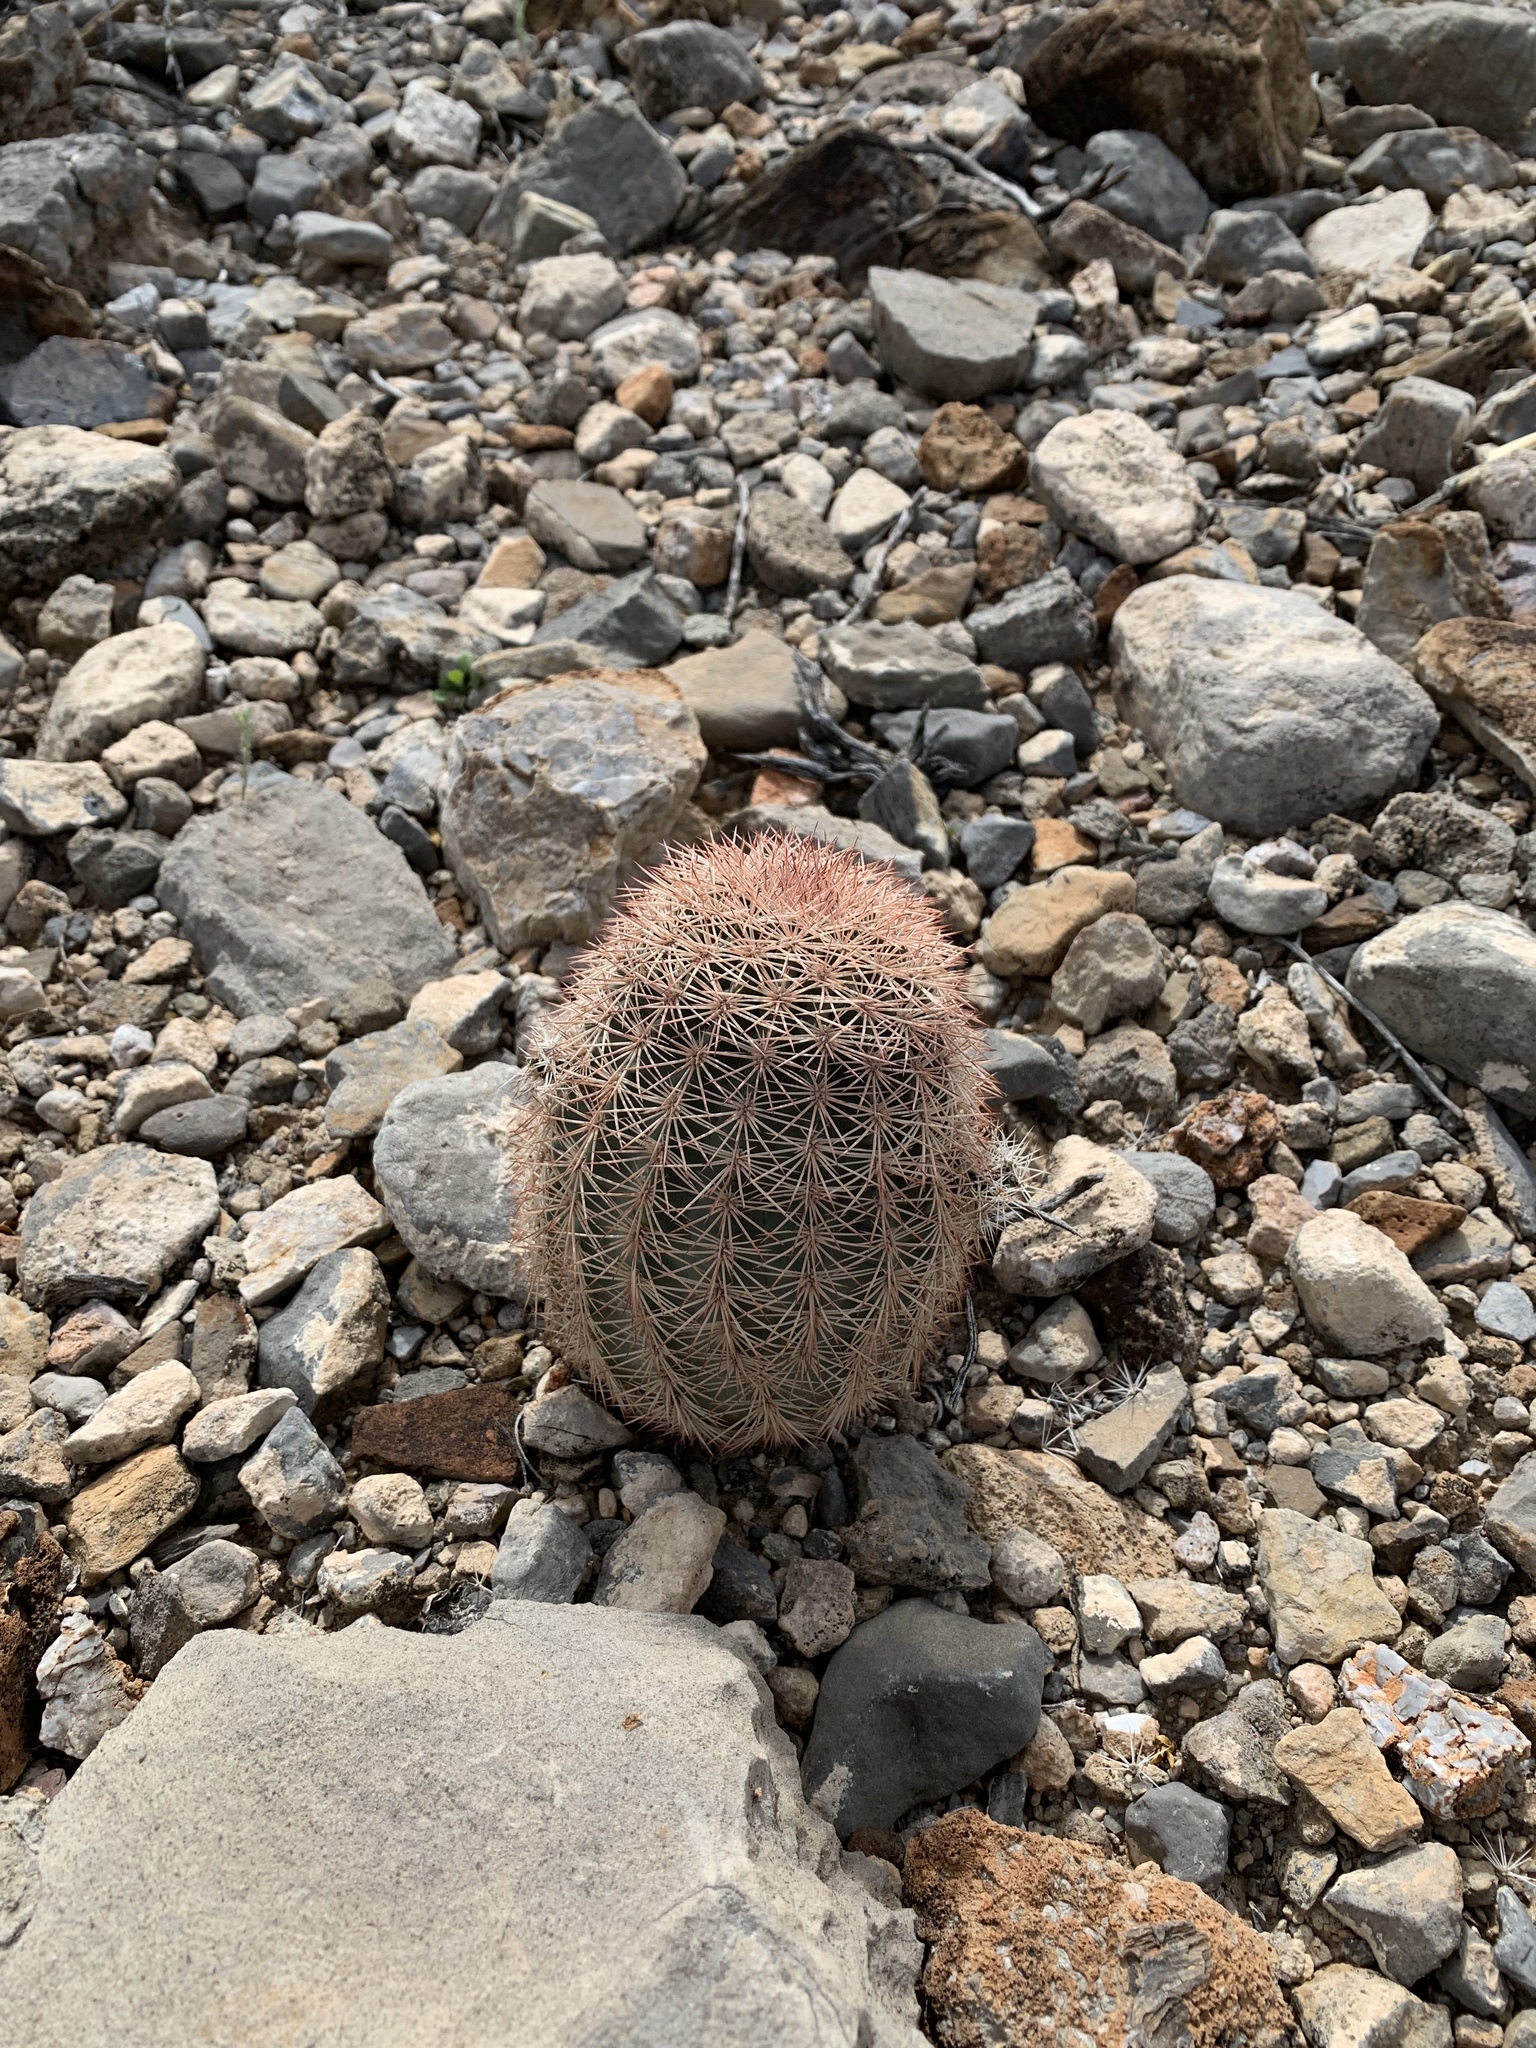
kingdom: Plantae
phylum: Tracheophyta
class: Magnoliopsida
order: Caryophyllales
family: Cactaceae
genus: Echinocereus
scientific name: Echinocereus dasyacanthus
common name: Spiny hedgehog cactus
